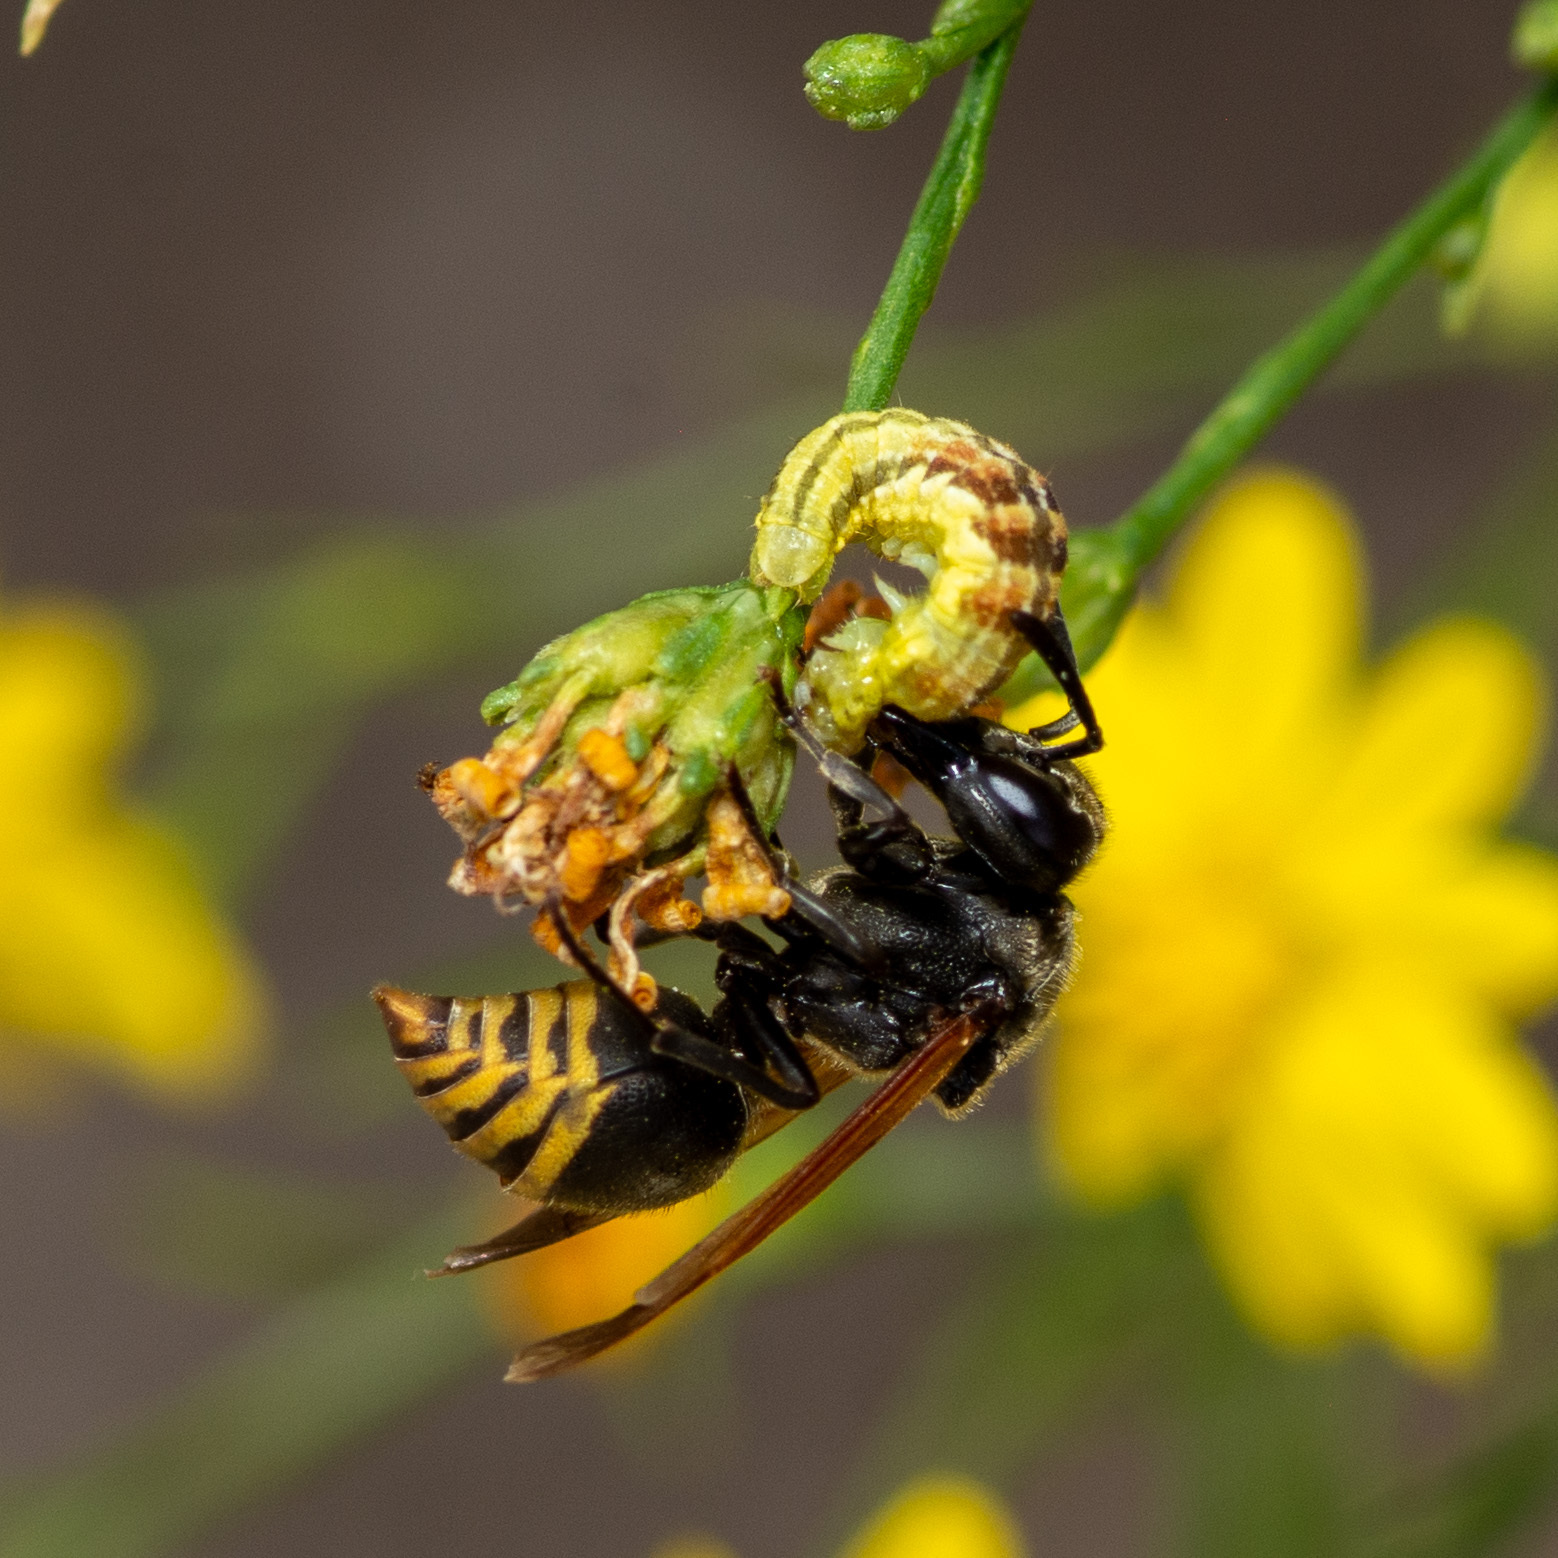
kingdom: Animalia
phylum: Arthropoda
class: Insecta
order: Hymenoptera
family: Vespidae
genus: Brachygastra
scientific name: Brachygastra mellifica
